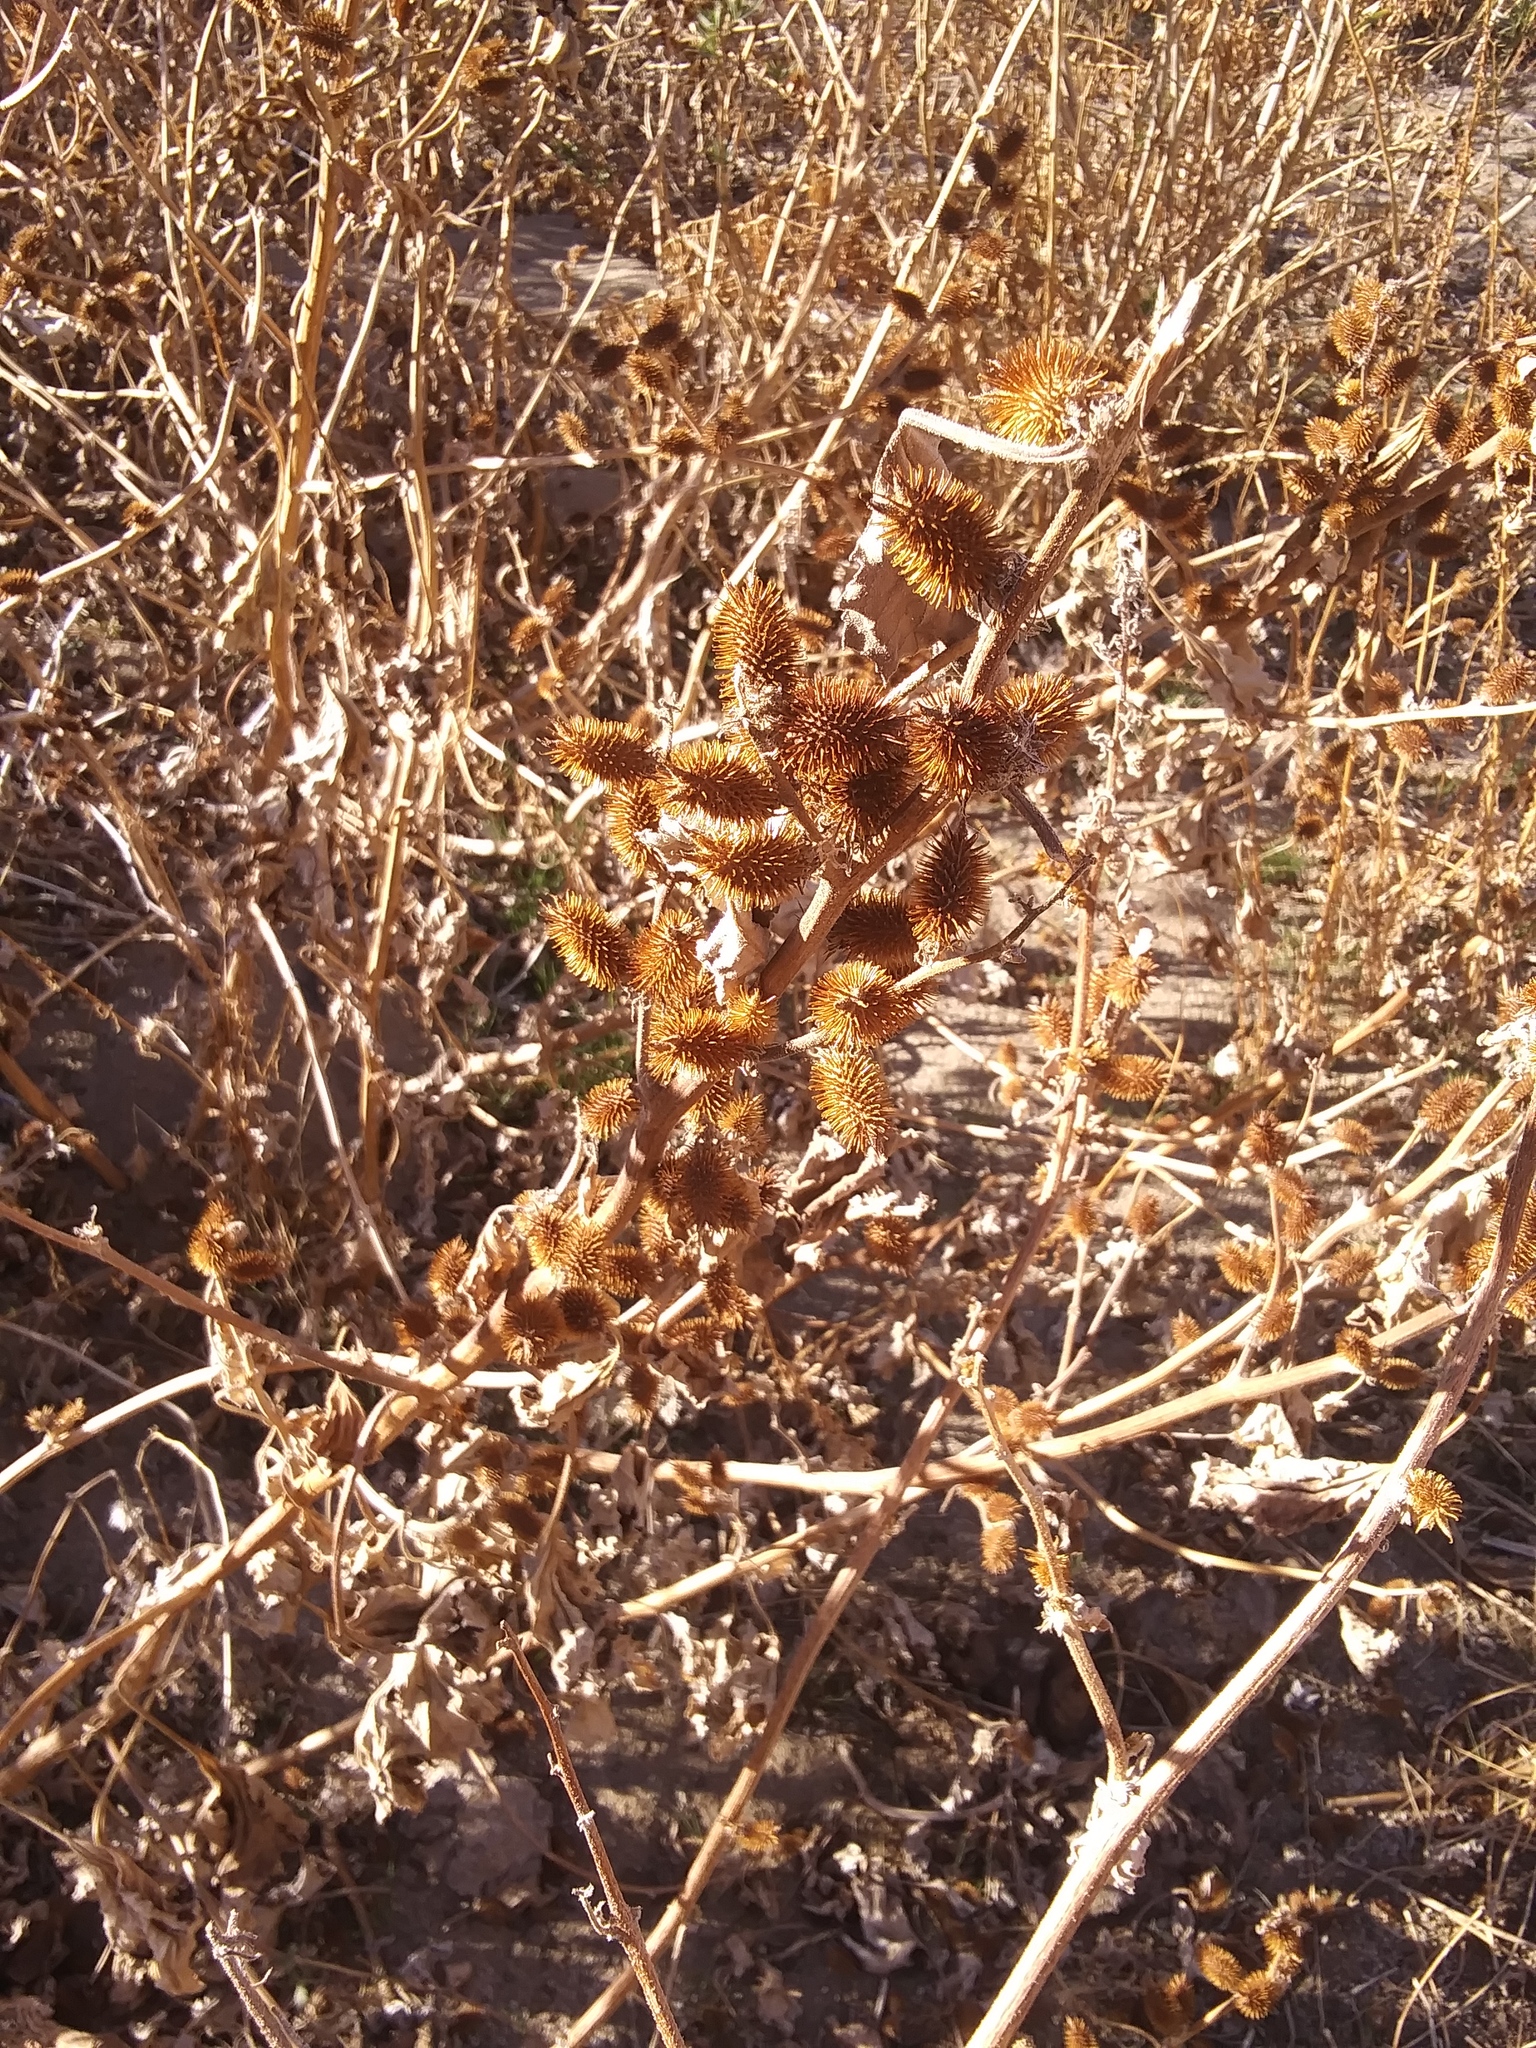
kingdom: Plantae
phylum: Tracheophyta
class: Magnoliopsida
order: Asterales
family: Asteraceae
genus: Xanthium
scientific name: Xanthium strumarium
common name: Rough cocklebur
